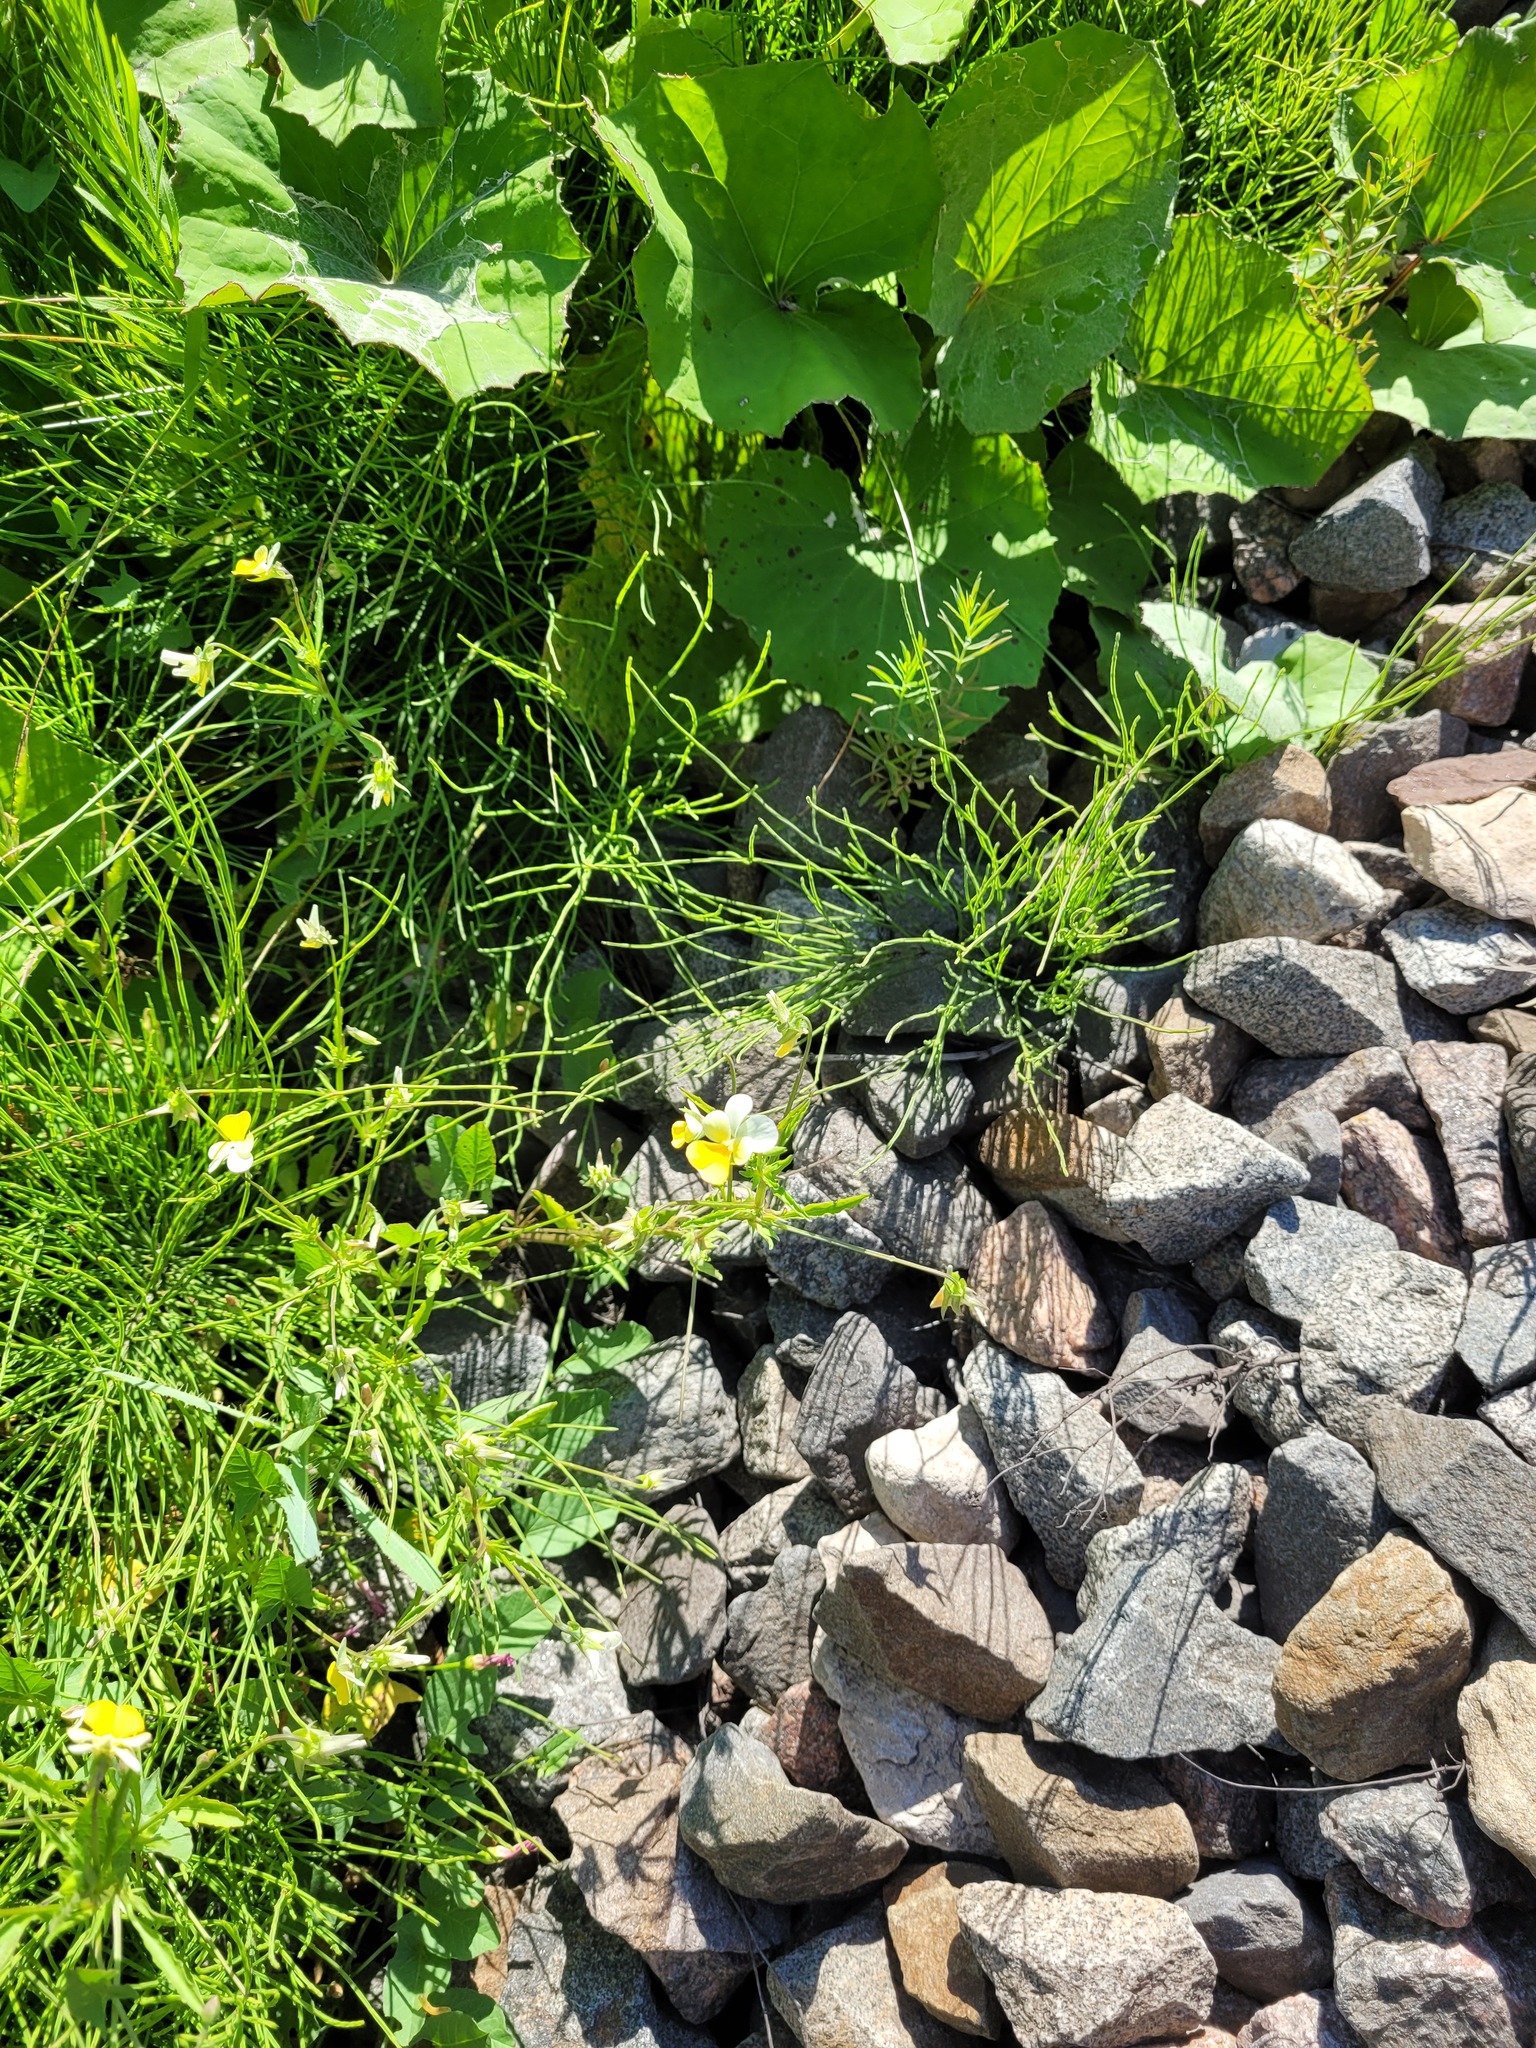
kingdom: Plantae
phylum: Tracheophyta
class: Magnoliopsida
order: Malpighiales
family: Violaceae
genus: Viola
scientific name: Viola contempta
